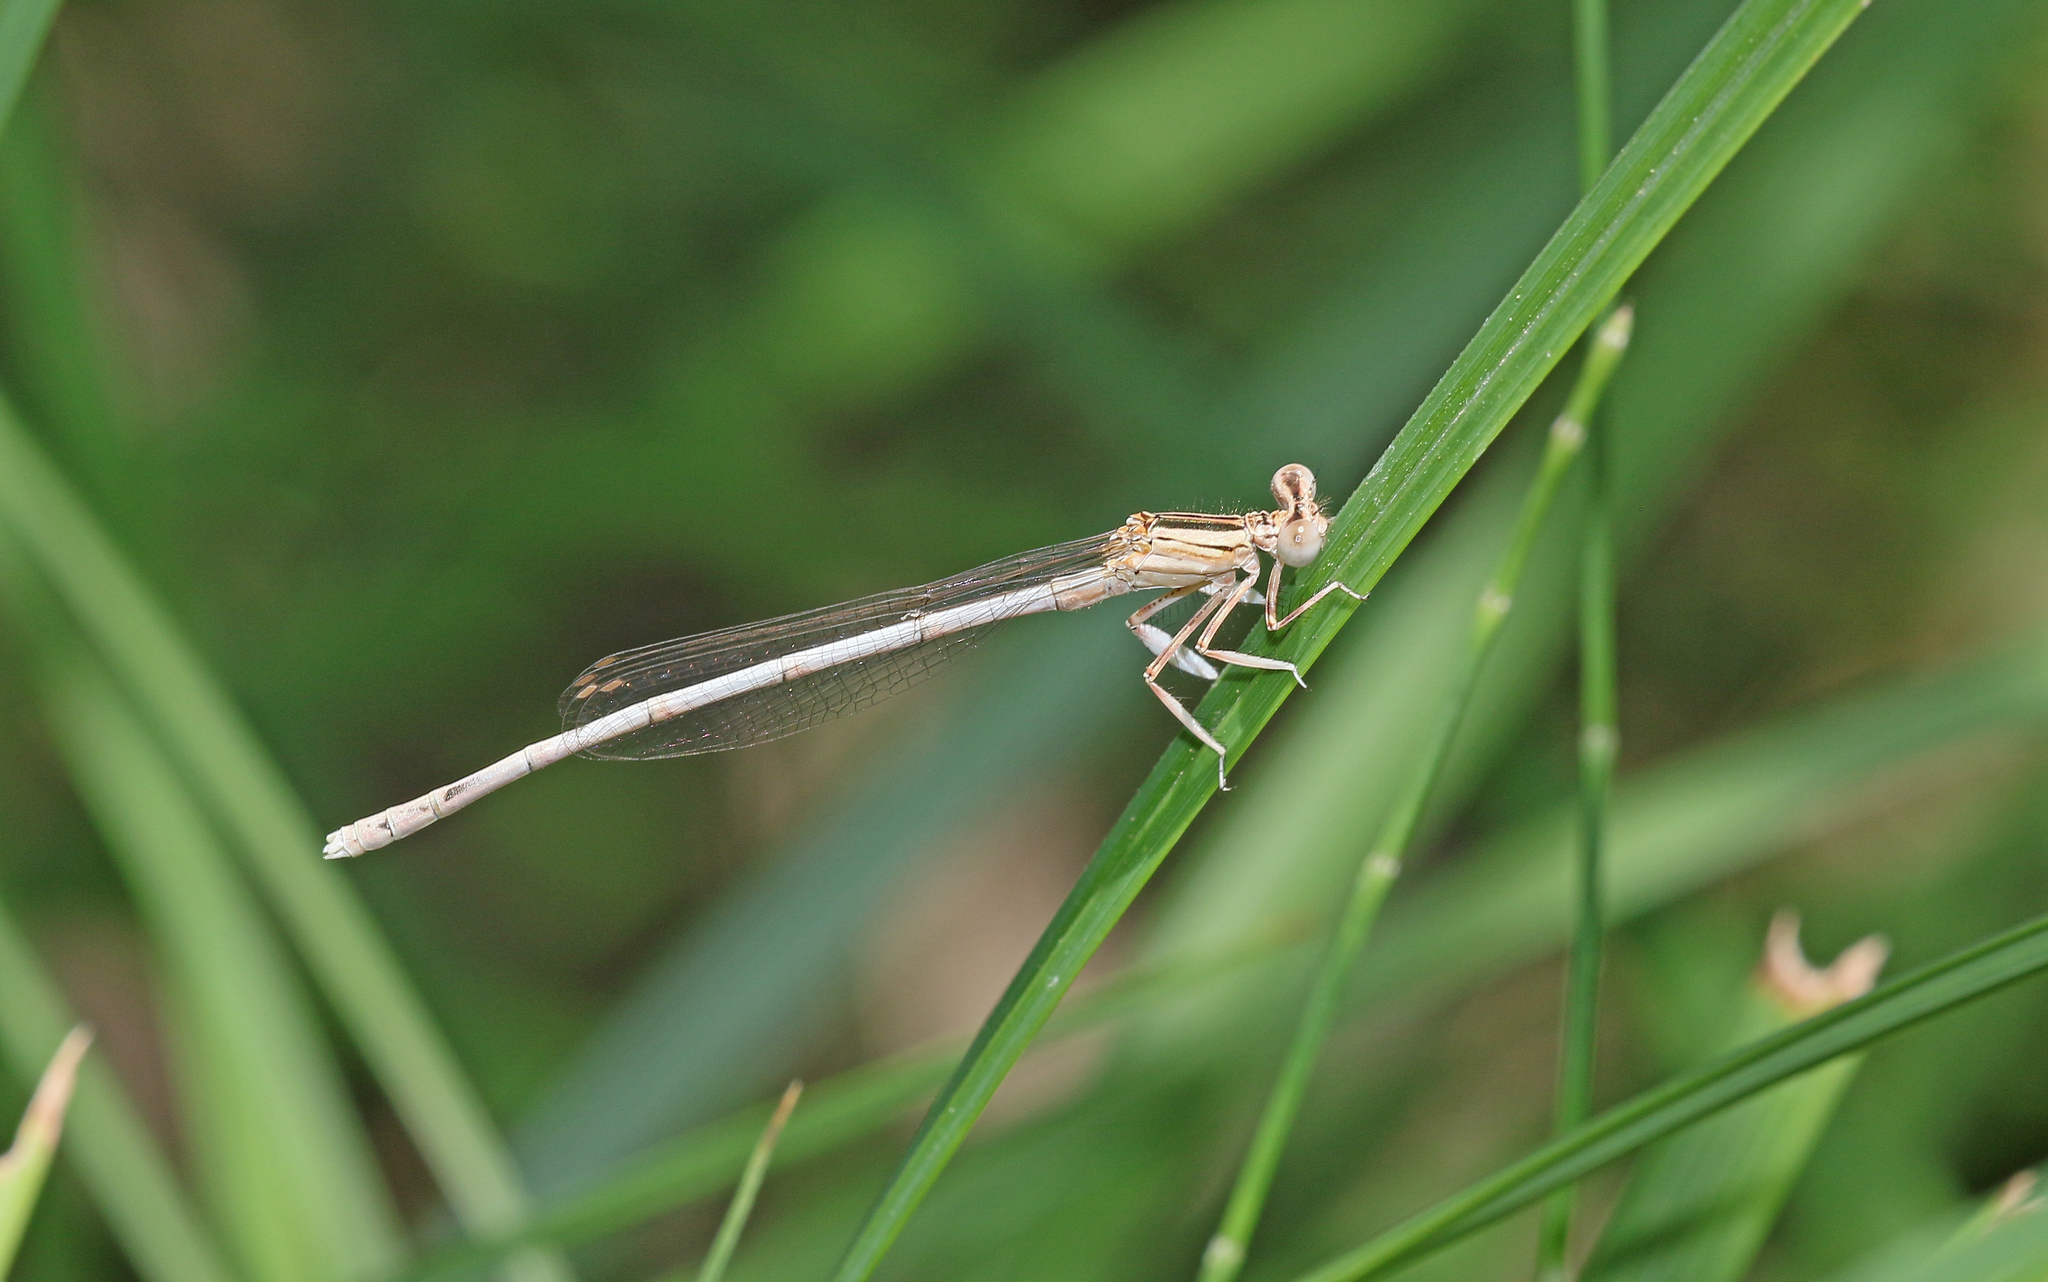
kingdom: Animalia
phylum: Arthropoda
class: Insecta
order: Odonata
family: Platycnemididae
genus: Platycnemis
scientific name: Platycnemis latipes
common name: White featherleg
